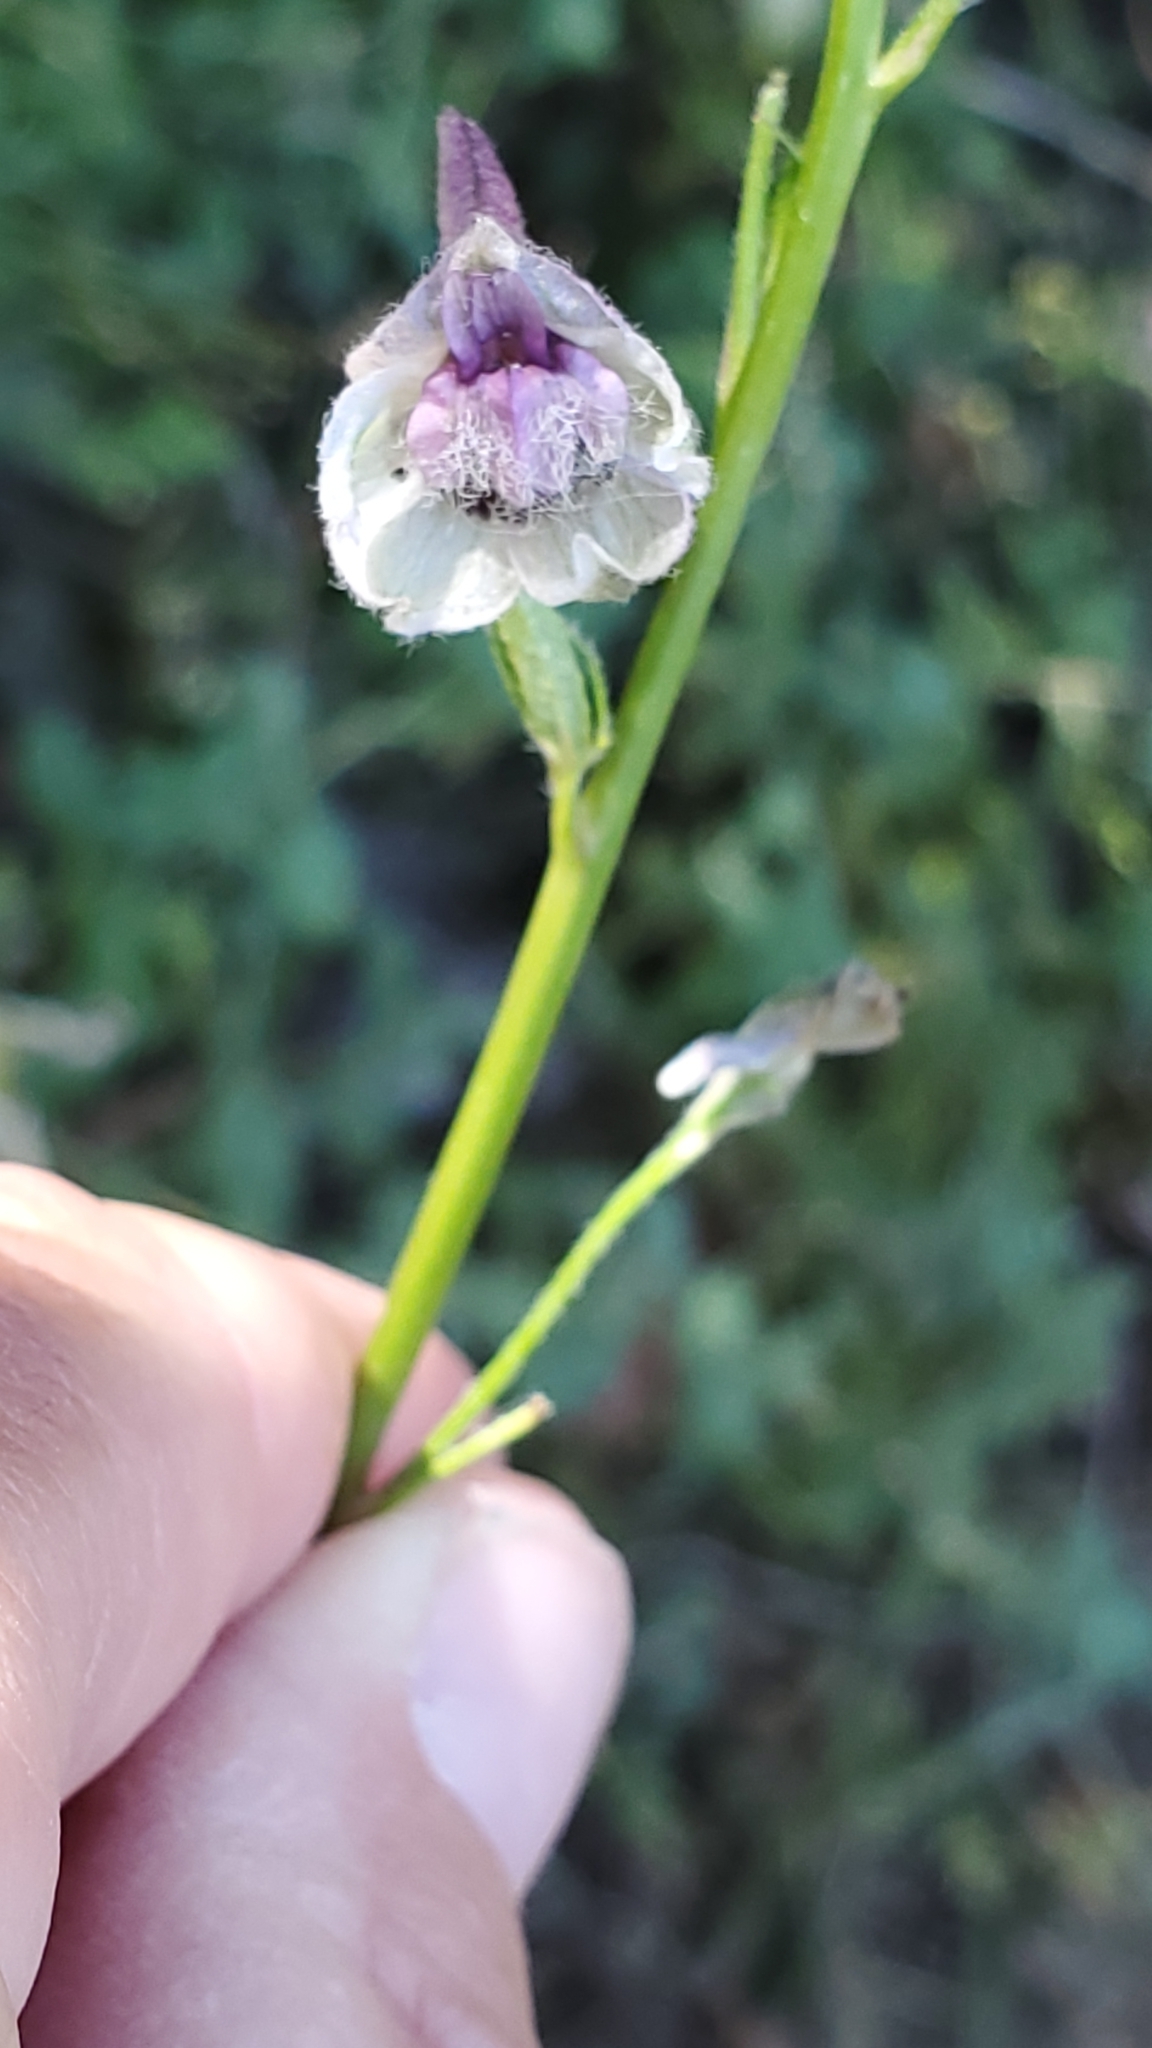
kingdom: Plantae
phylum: Tracheophyta
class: Magnoliopsida
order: Ranunculales
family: Ranunculaceae
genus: Delphinium
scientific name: Delphinium californicum
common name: California larkspur
